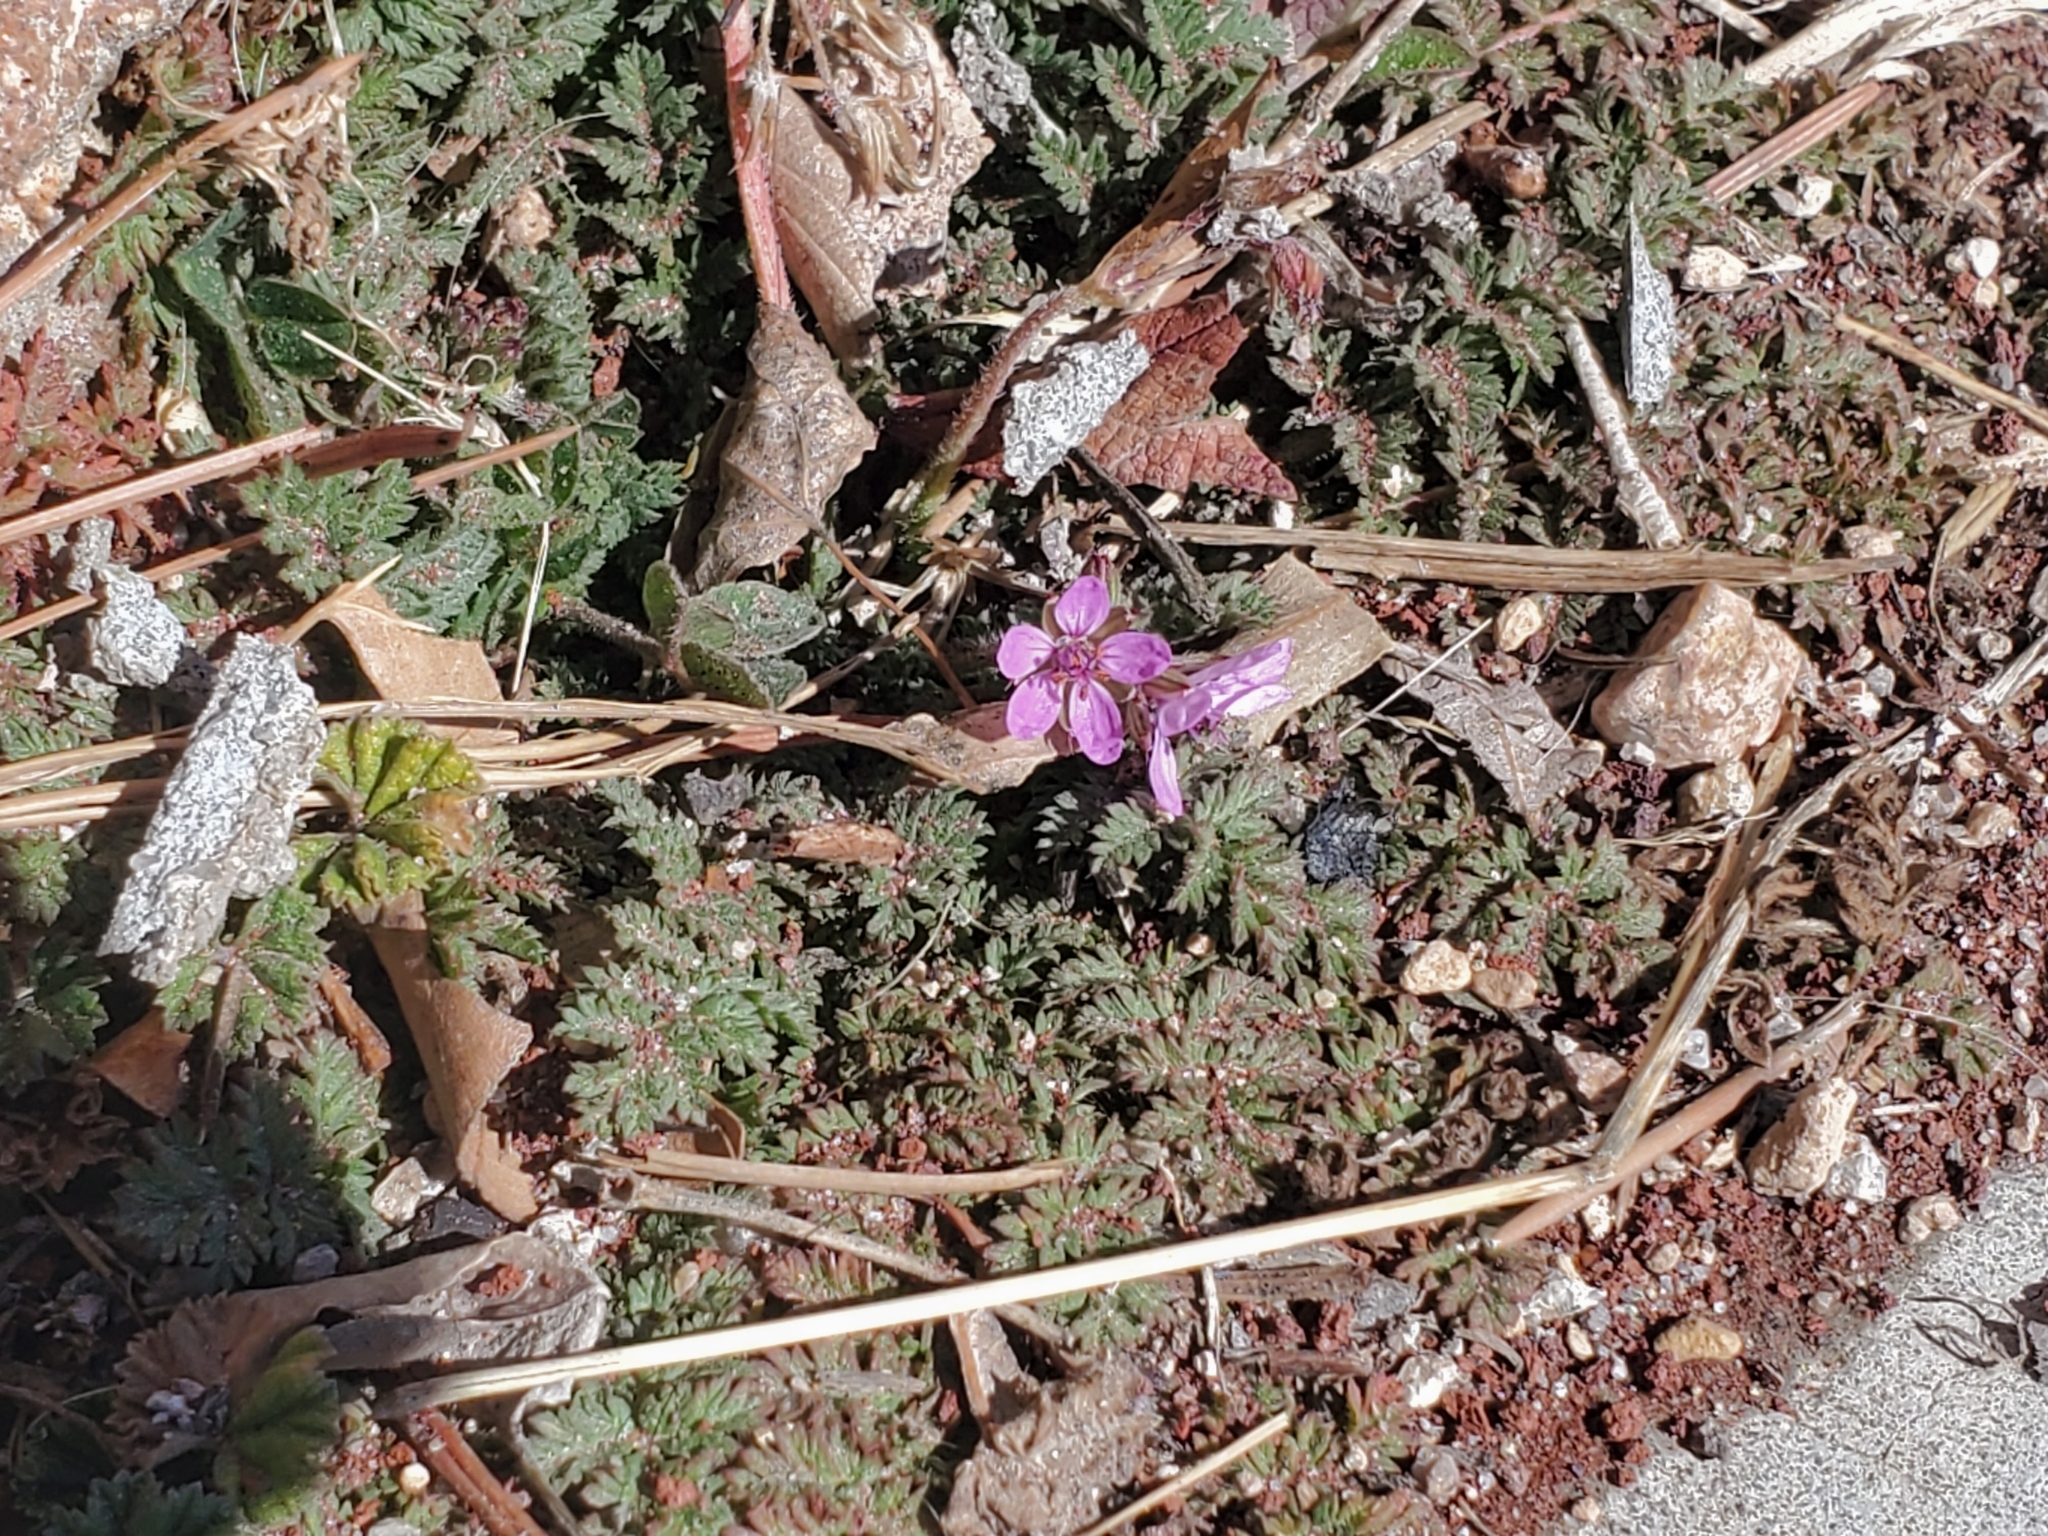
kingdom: Plantae
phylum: Tracheophyta
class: Magnoliopsida
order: Geraniales
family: Geraniaceae
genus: Erodium
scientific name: Erodium cicutarium
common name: Common stork's-bill
